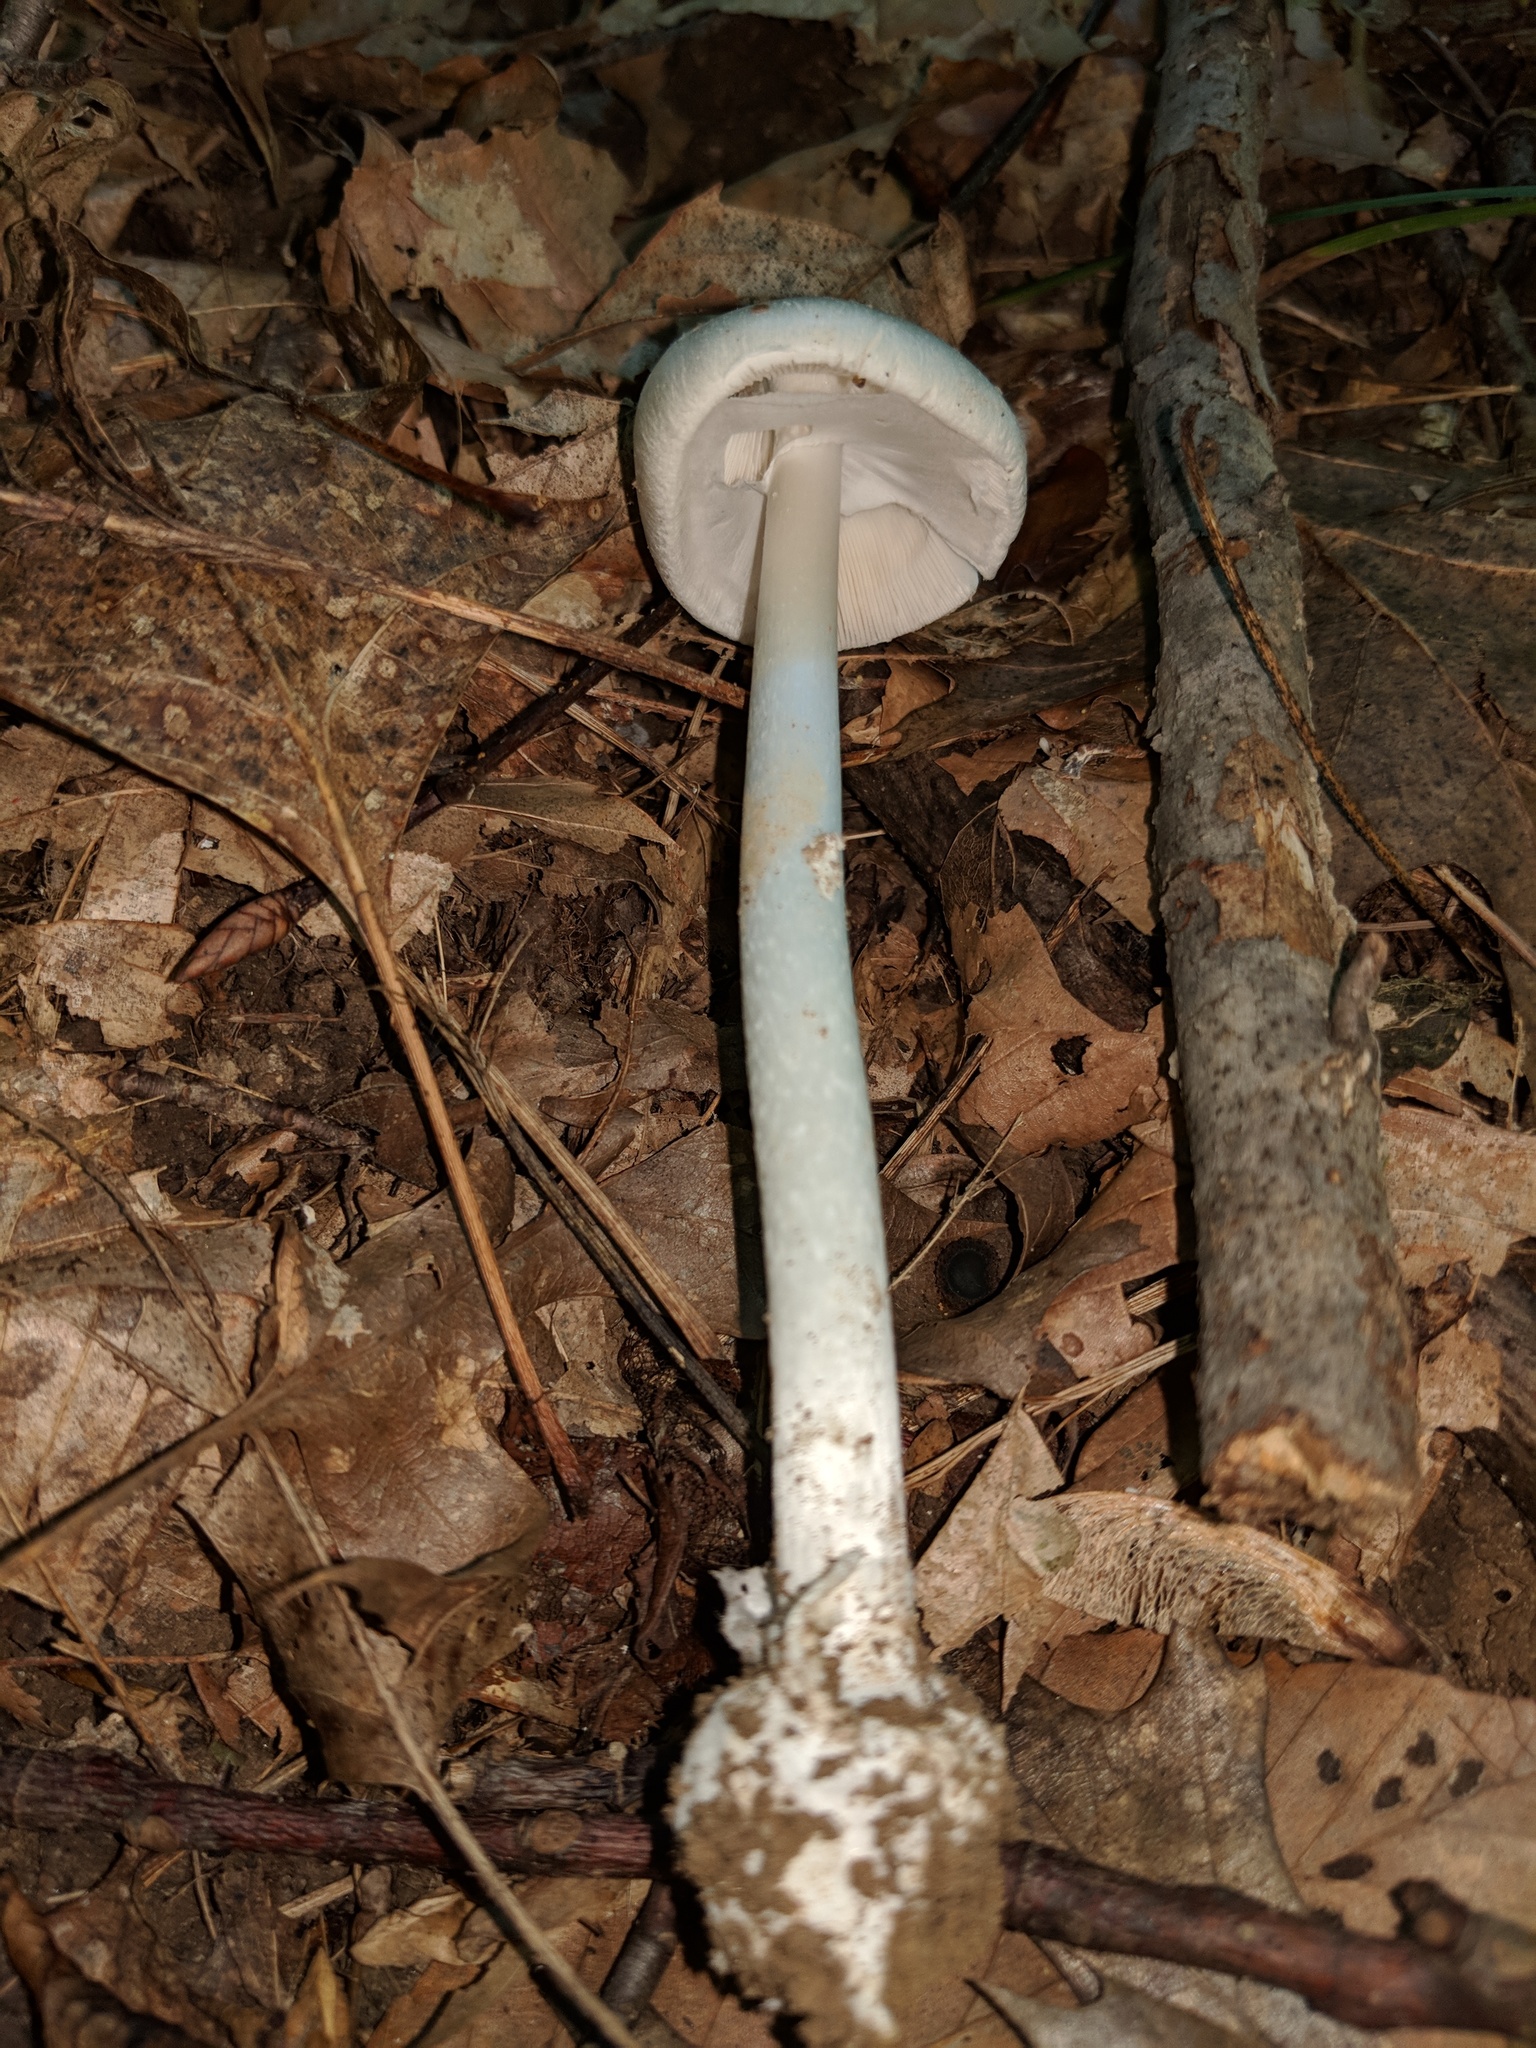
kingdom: Fungi
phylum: Basidiomycota
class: Agaricomycetes
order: Agaricales
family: Amanitaceae
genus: Amanita
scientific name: Amanita bisporigera
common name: Eastern north american destroying angel
